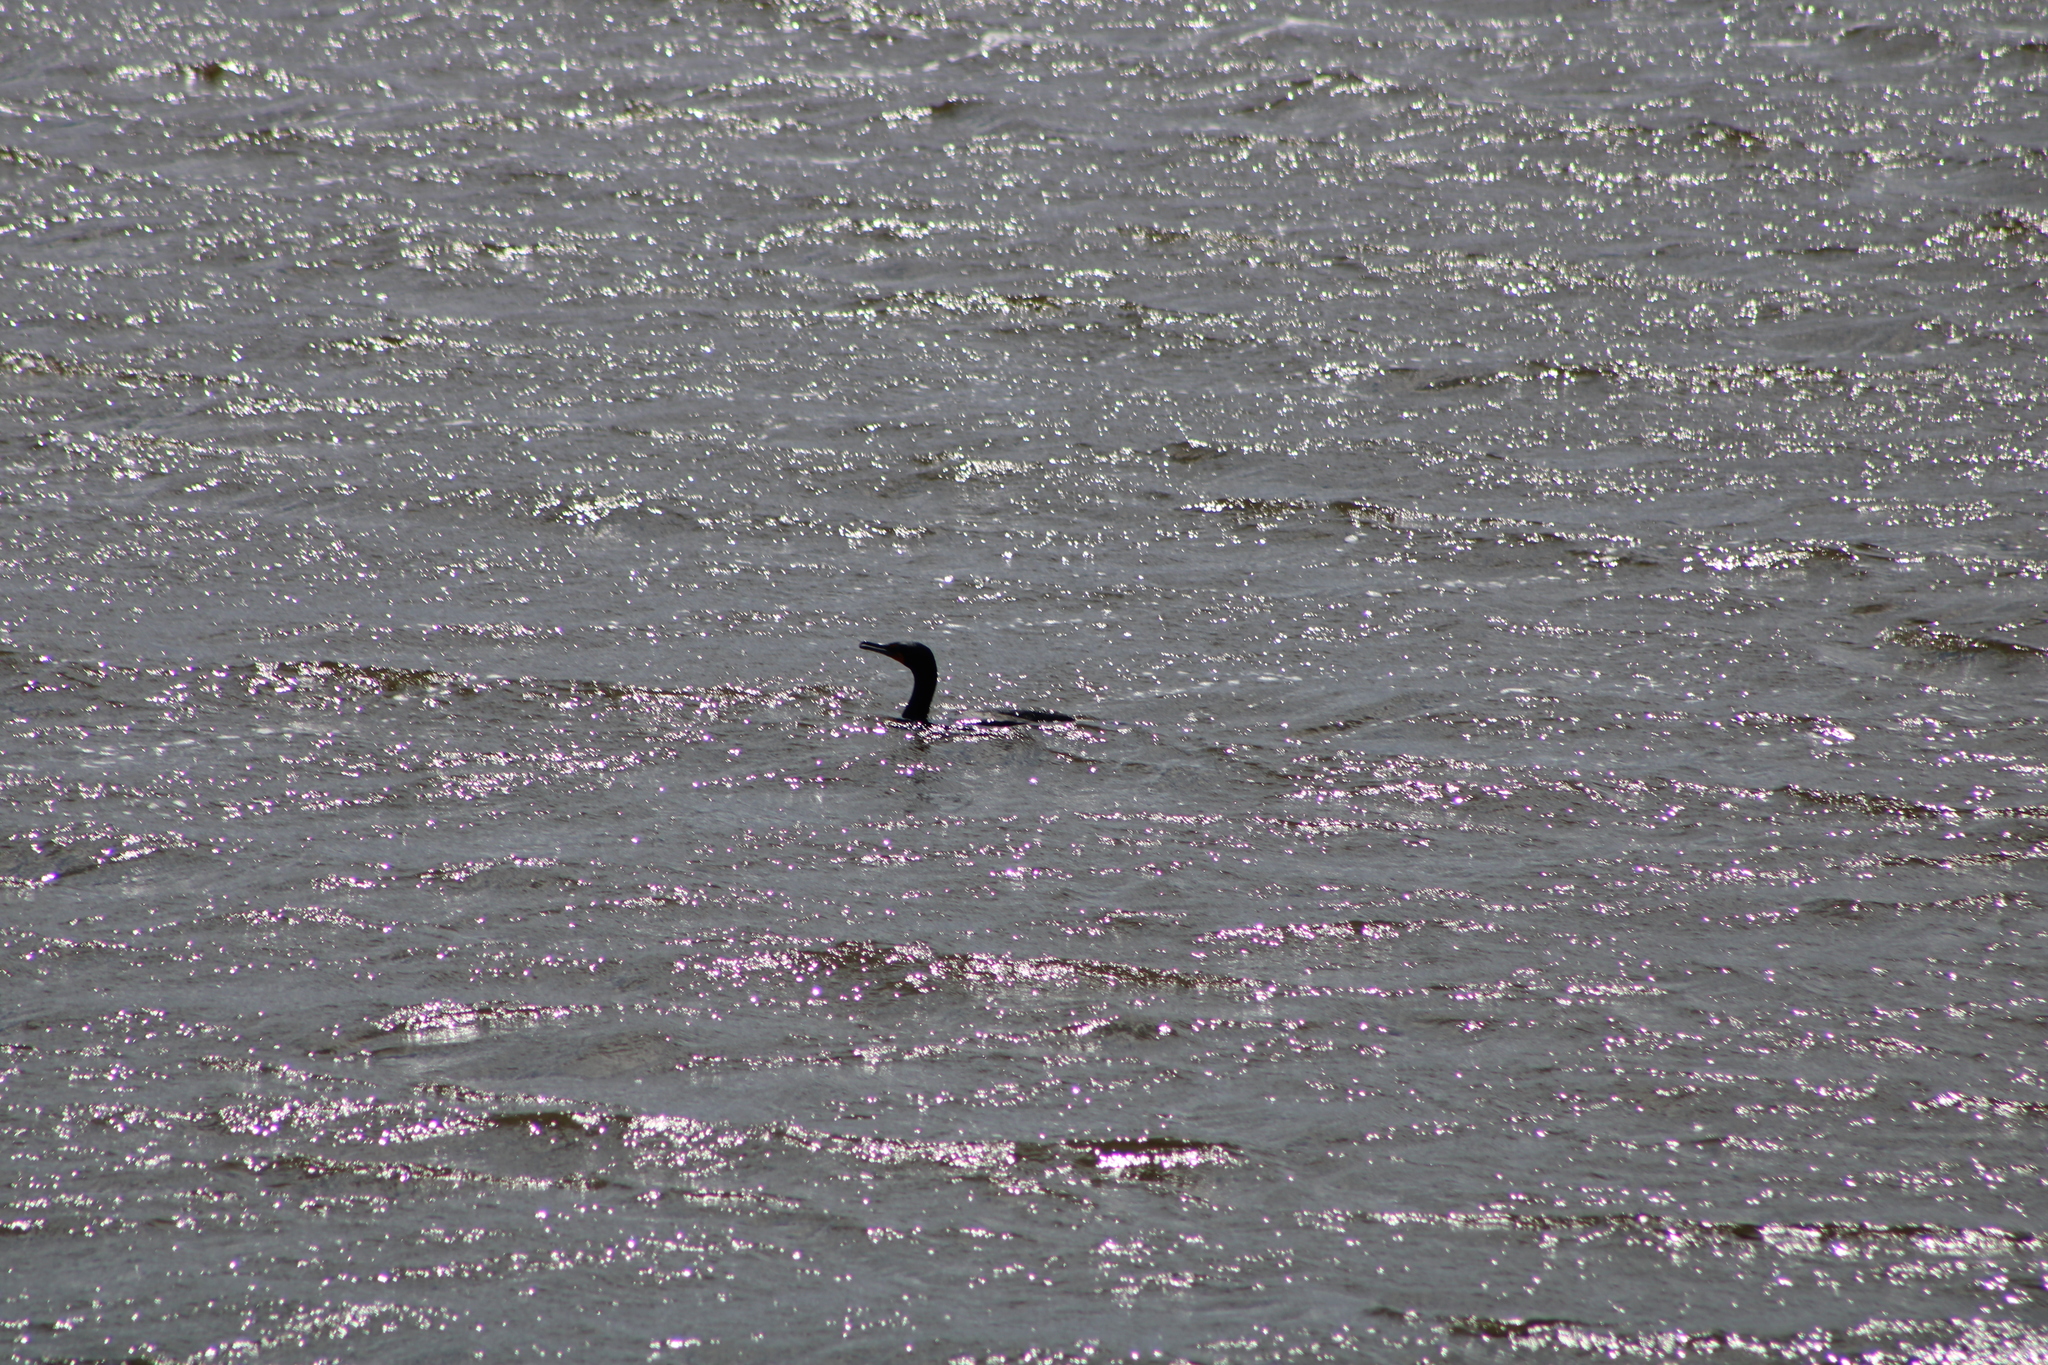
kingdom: Animalia
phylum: Chordata
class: Aves
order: Suliformes
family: Phalacrocoracidae
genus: Phalacrocorax
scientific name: Phalacrocorax auritus
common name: Double-crested cormorant
